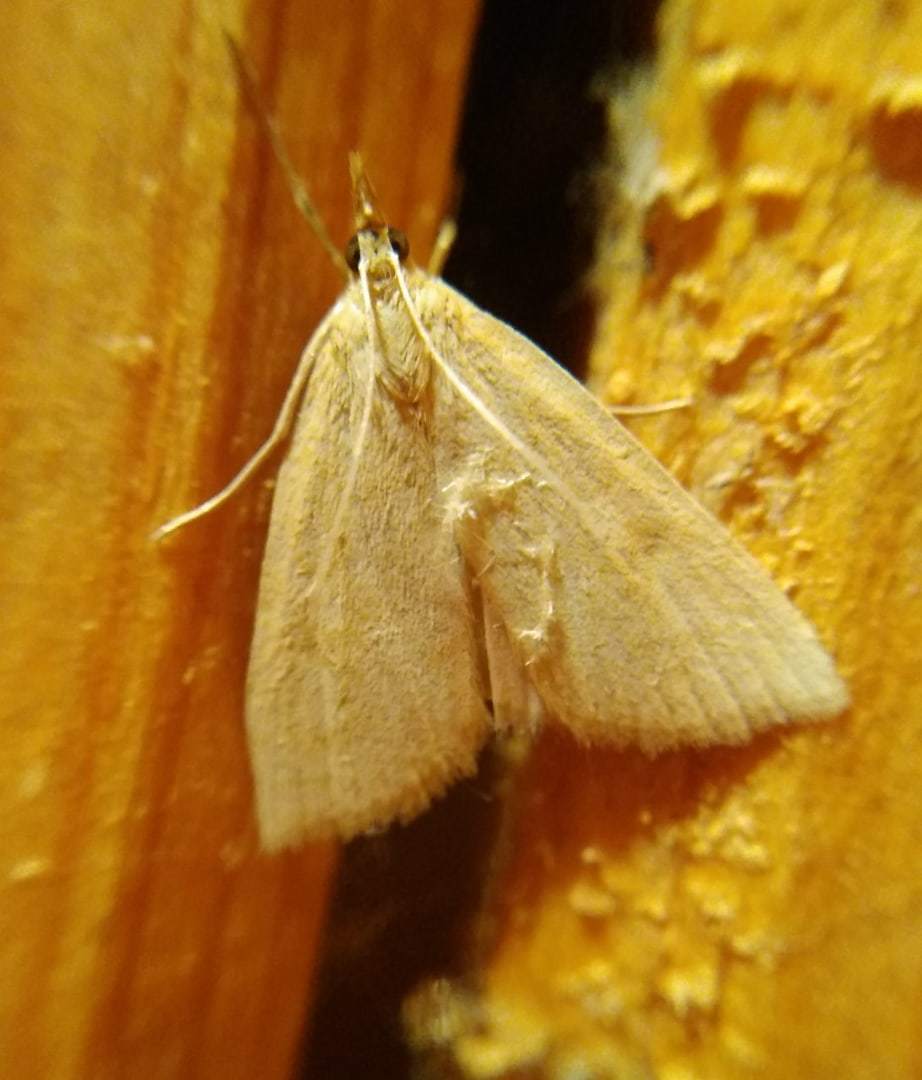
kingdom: Animalia
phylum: Arthropoda
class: Insecta
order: Lepidoptera
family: Crambidae
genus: Udea
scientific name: Udea
